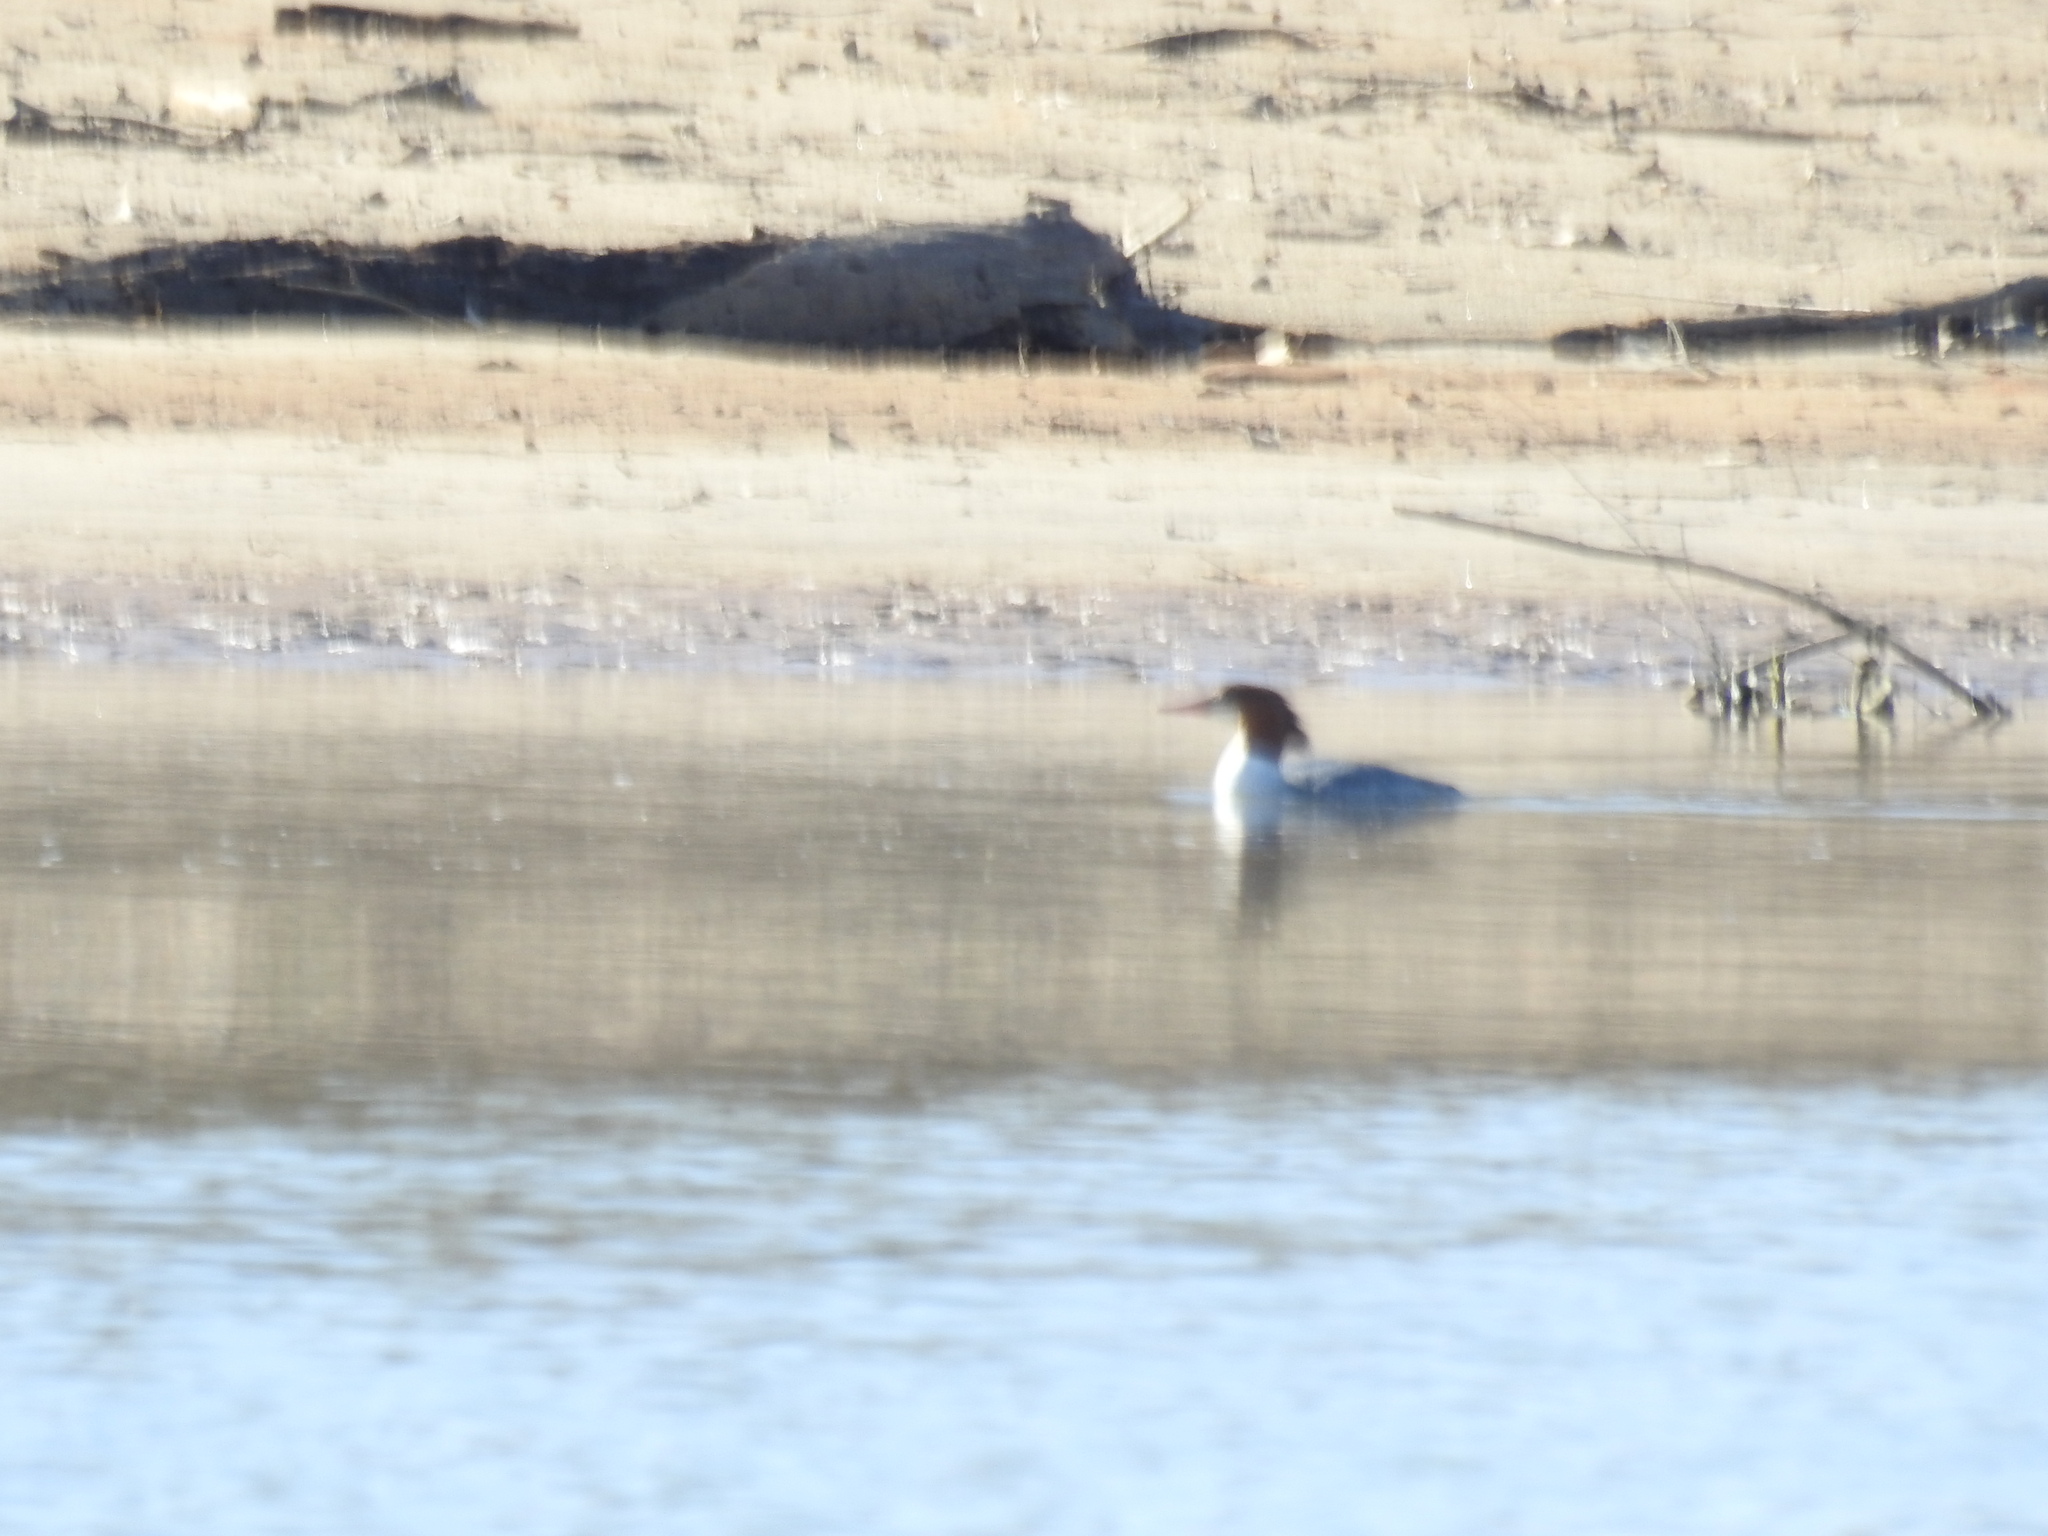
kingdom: Animalia
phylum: Chordata
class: Aves
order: Anseriformes
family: Anatidae
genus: Mergus
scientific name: Mergus merganser
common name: Common merganser
